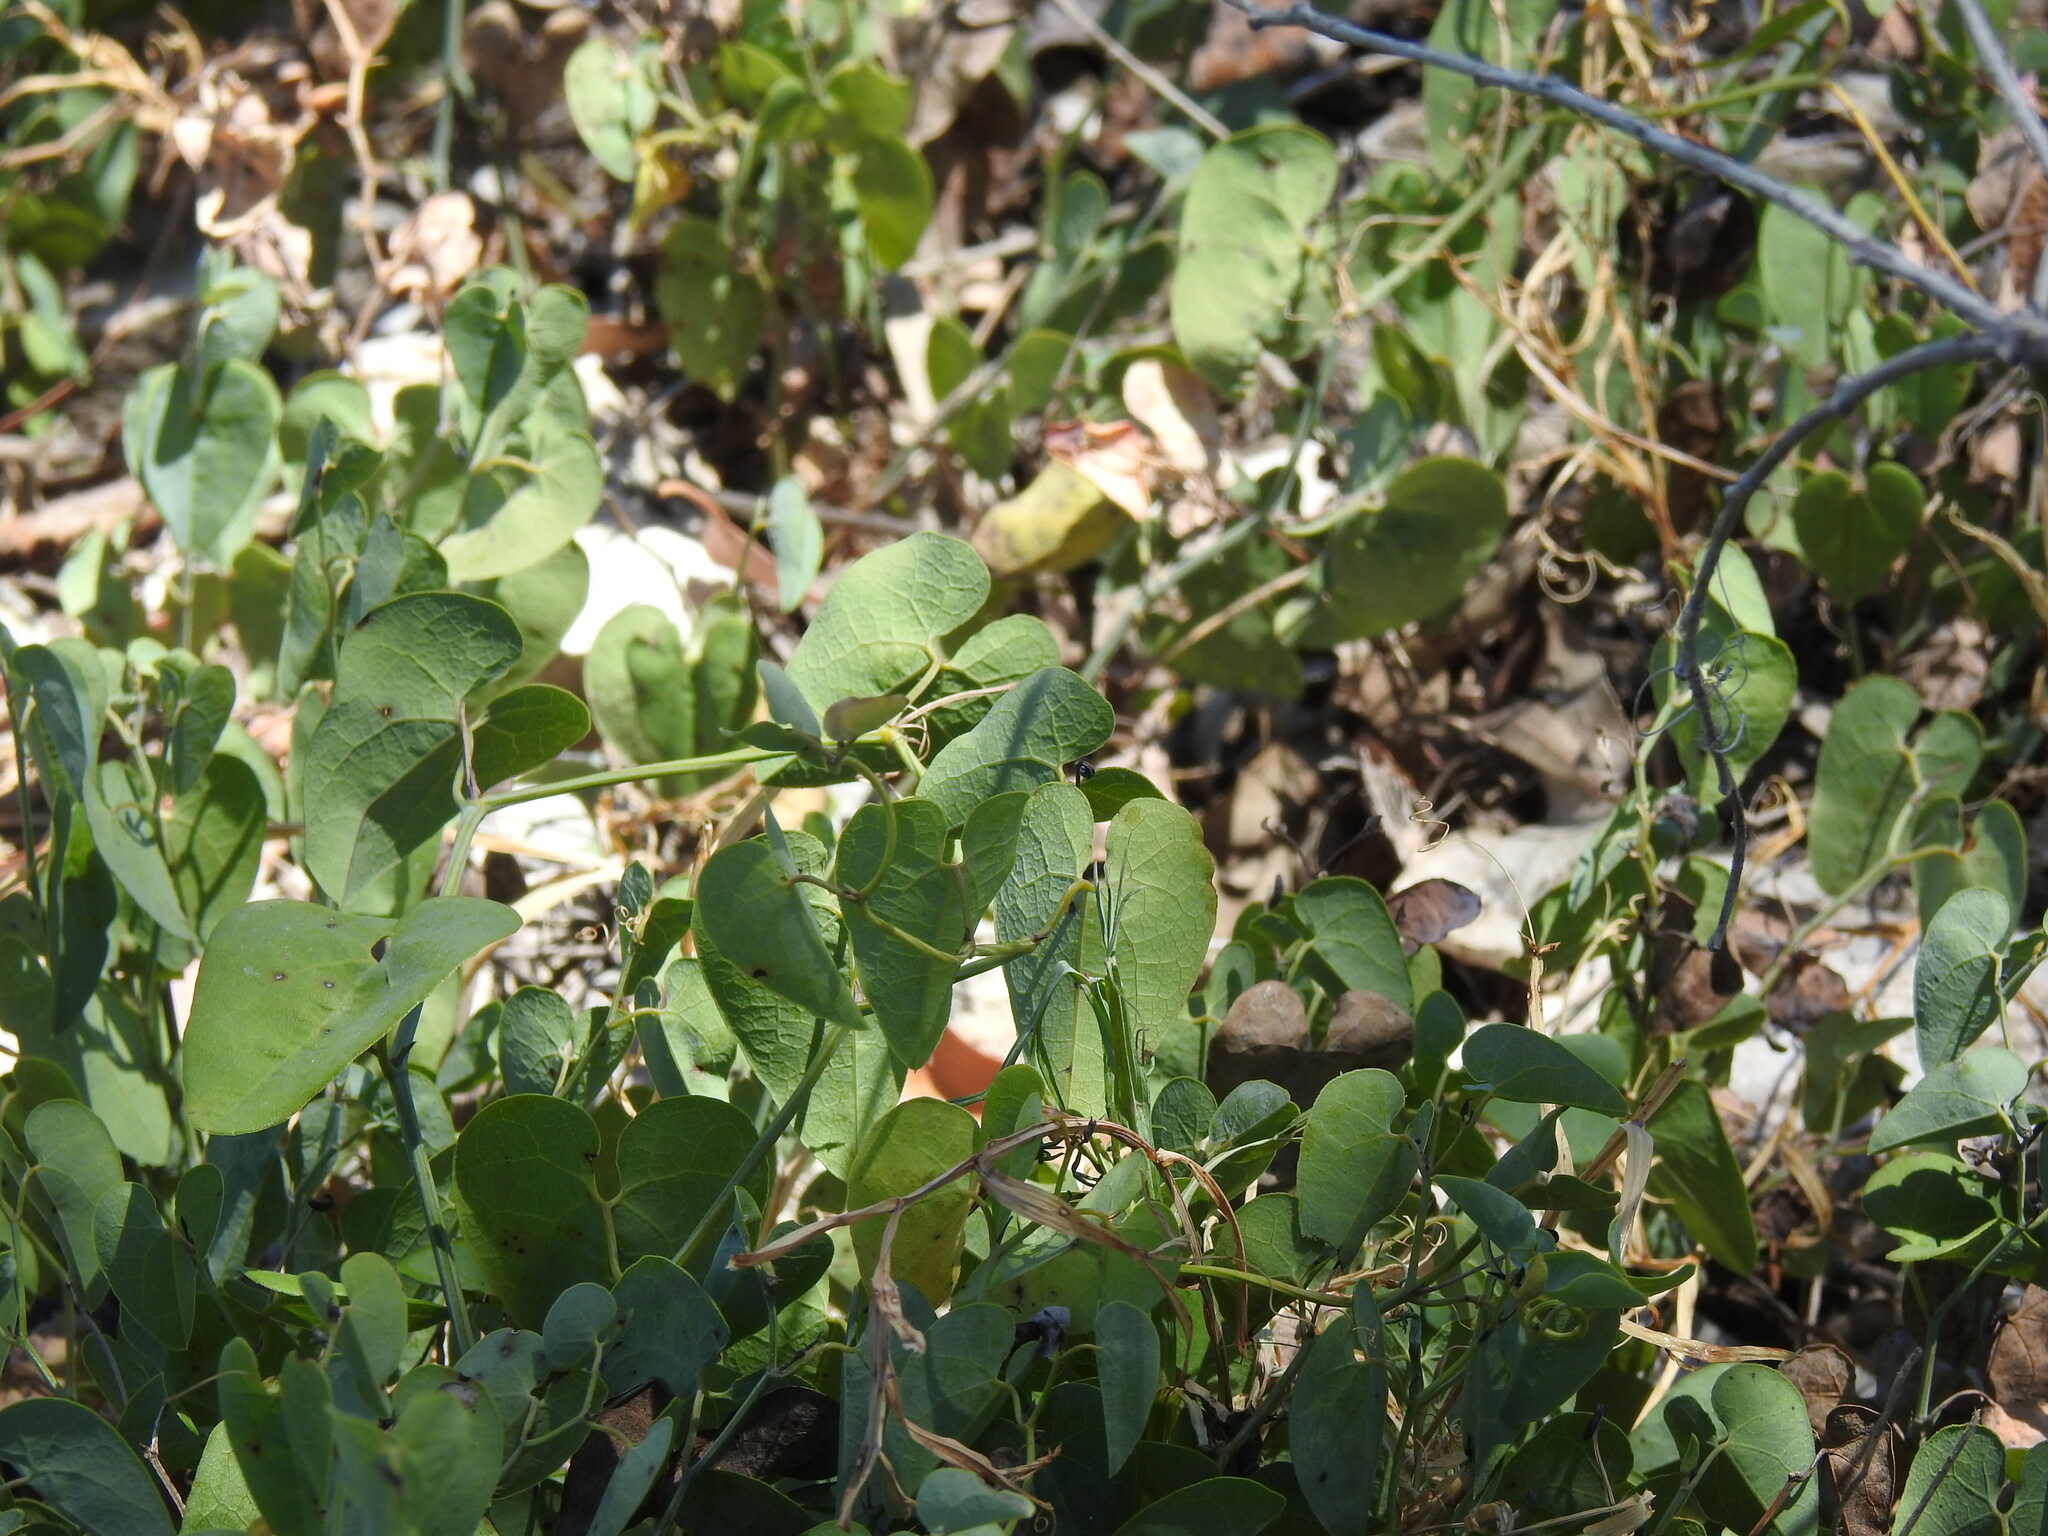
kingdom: Plantae
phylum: Tracheophyta
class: Magnoliopsida
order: Piperales
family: Aristolochiaceae
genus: Aristolochia
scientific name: Aristolochia baetica
